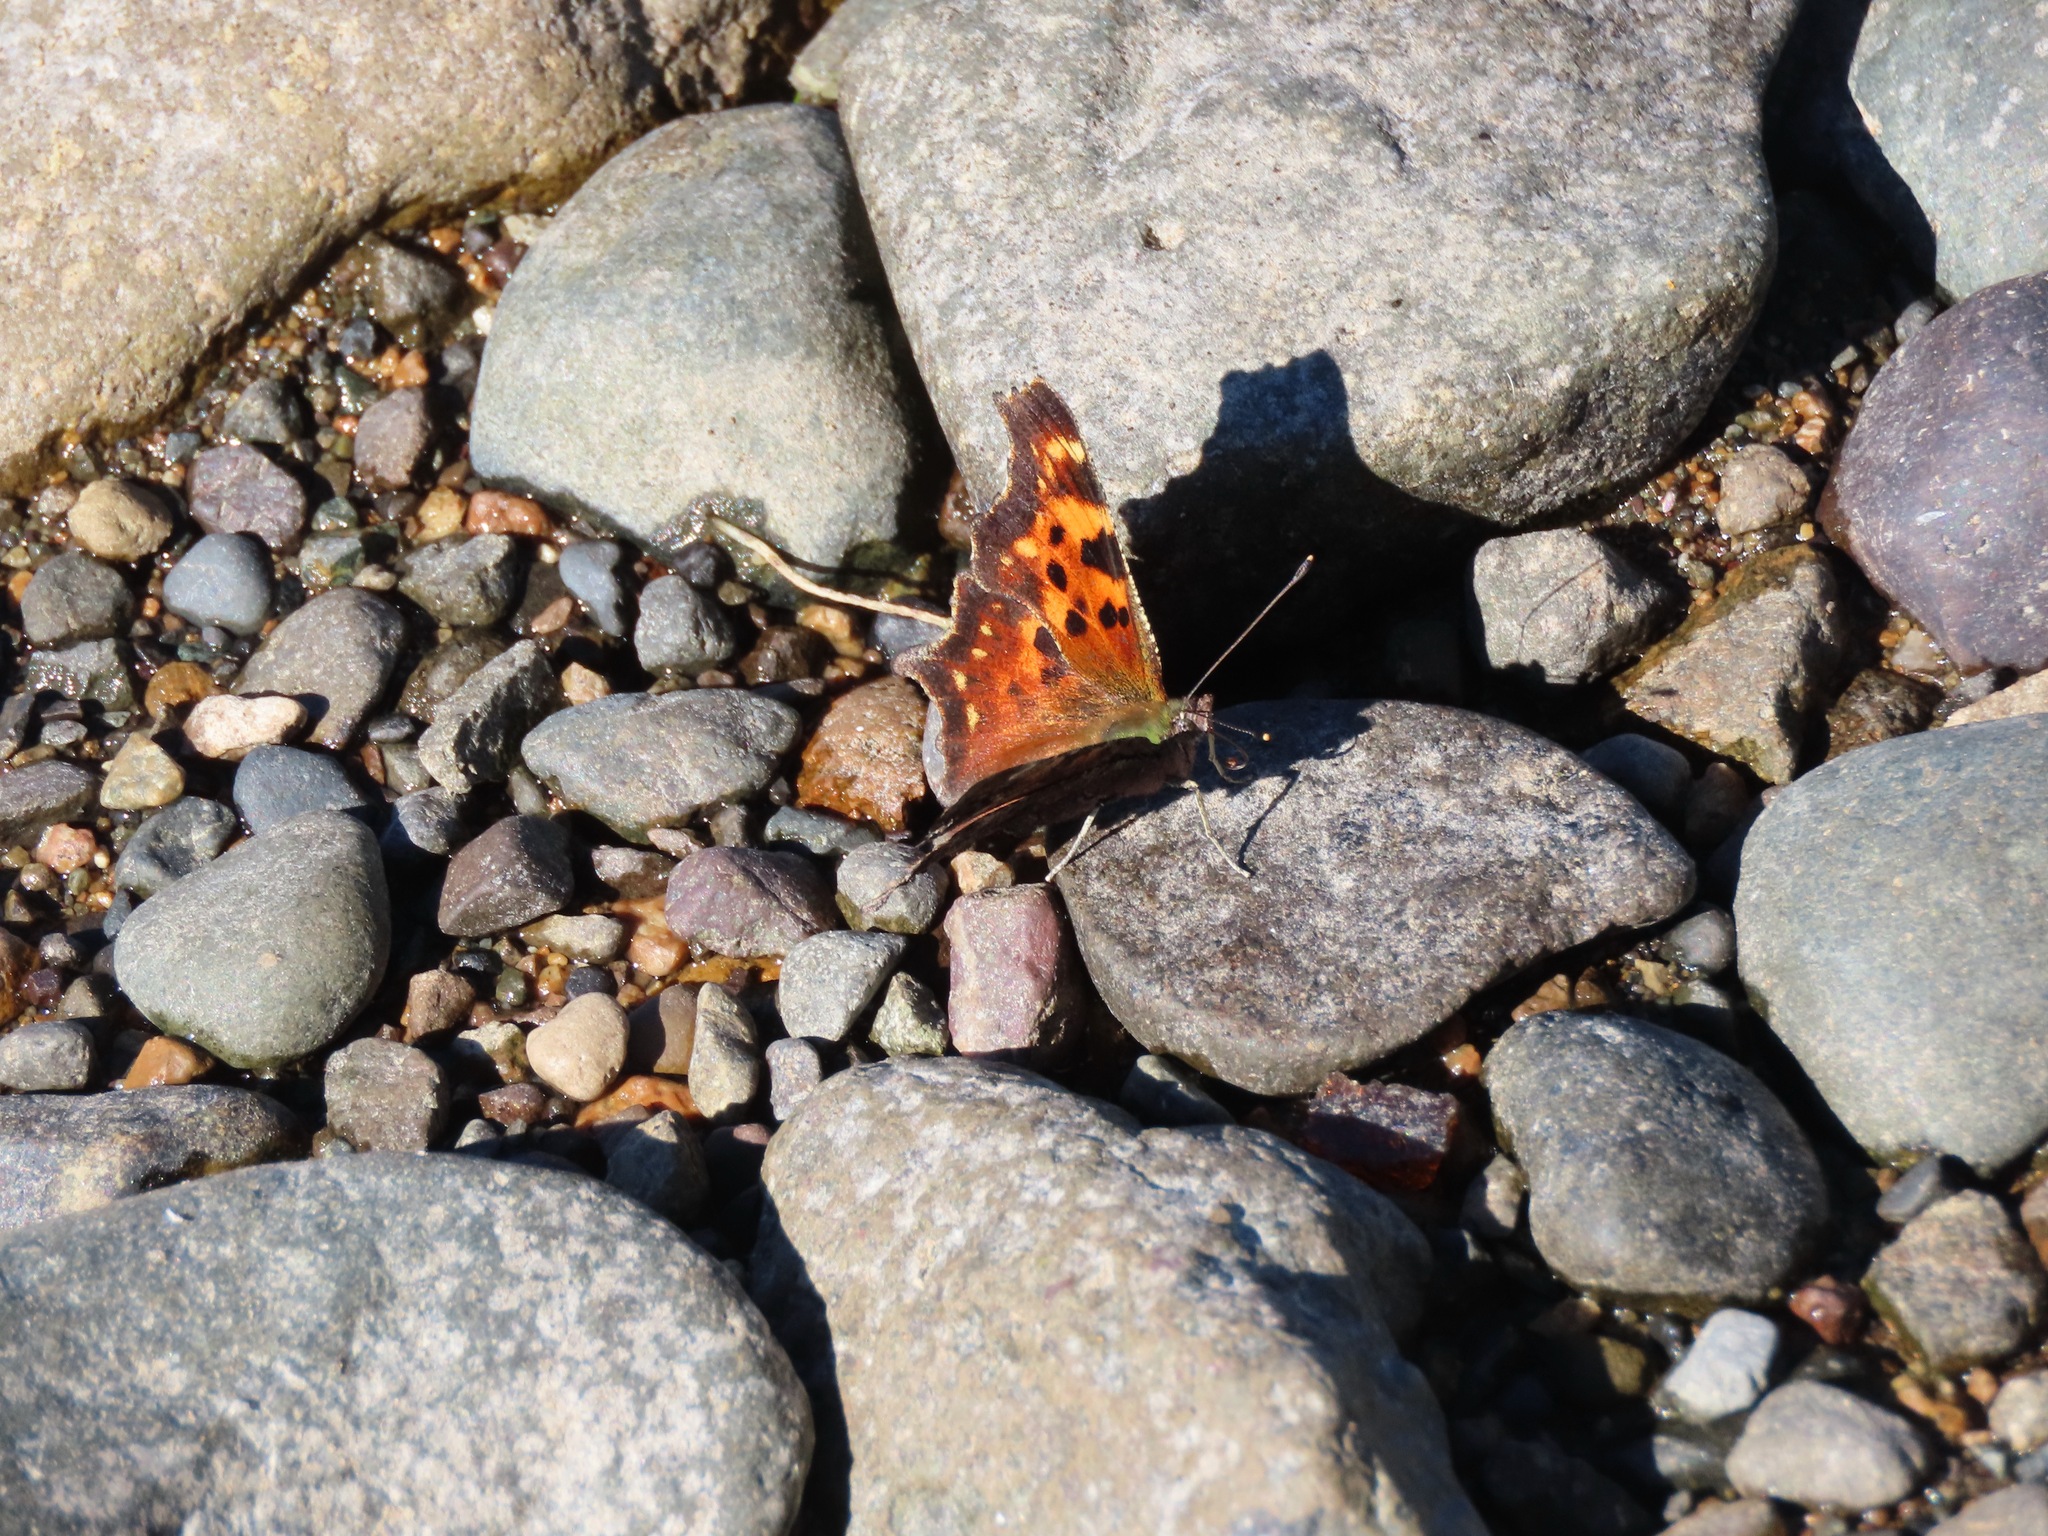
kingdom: Animalia
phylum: Arthropoda
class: Insecta
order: Lepidoptera
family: Nymphalidae
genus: Polygonia
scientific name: Polygonia faunus
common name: Green comma
